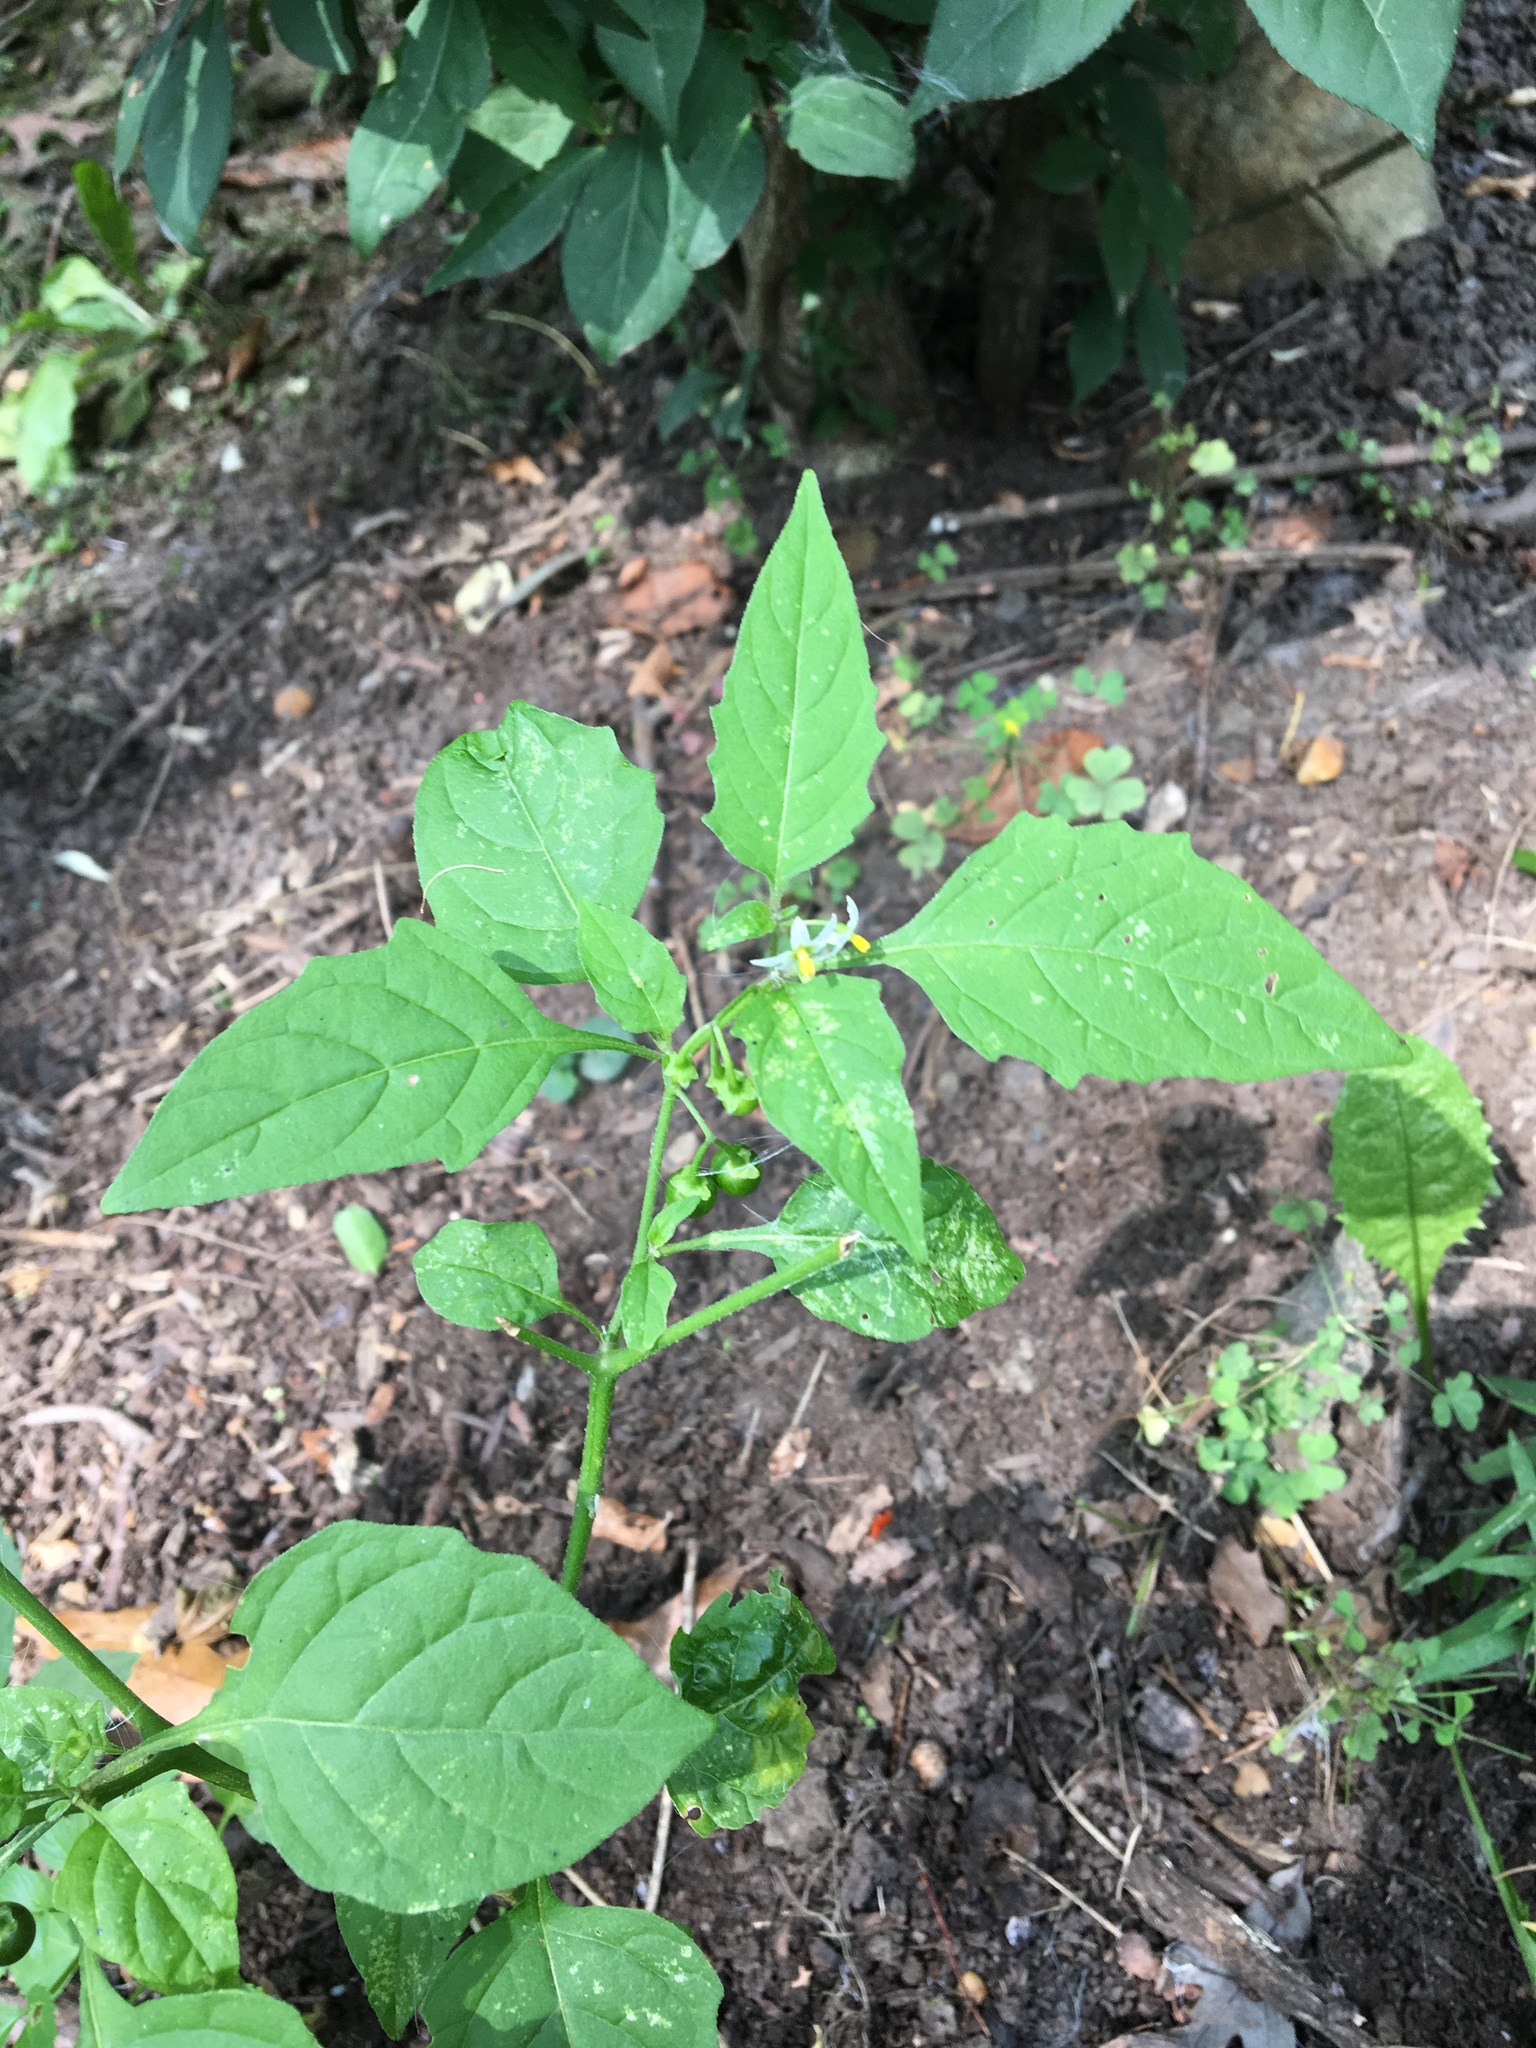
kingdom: Plantae
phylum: Tracheophyta
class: Magnoliopsida
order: Solanales
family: Solanaceae
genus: Solanum
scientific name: Solanum emulans
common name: Eastern black nightshade
